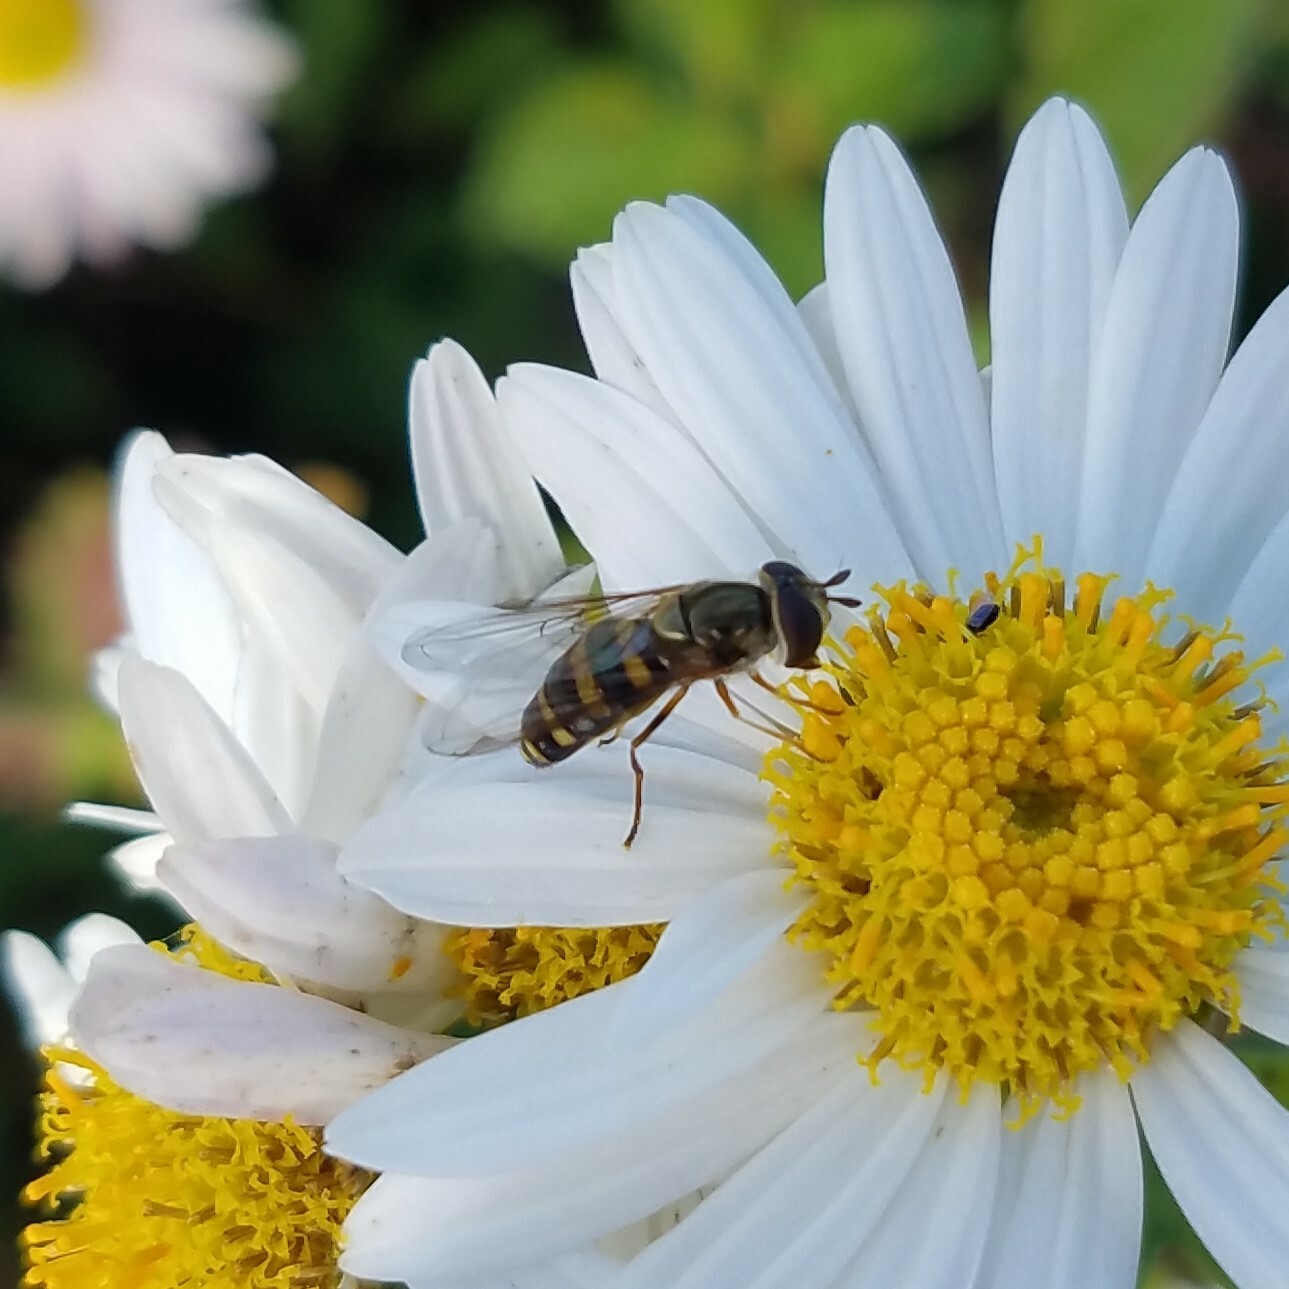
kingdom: Animalia
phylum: Arthropoda
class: Insecta
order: Diptera
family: Syrphidae
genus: Eupeodes
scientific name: Eupeodes
